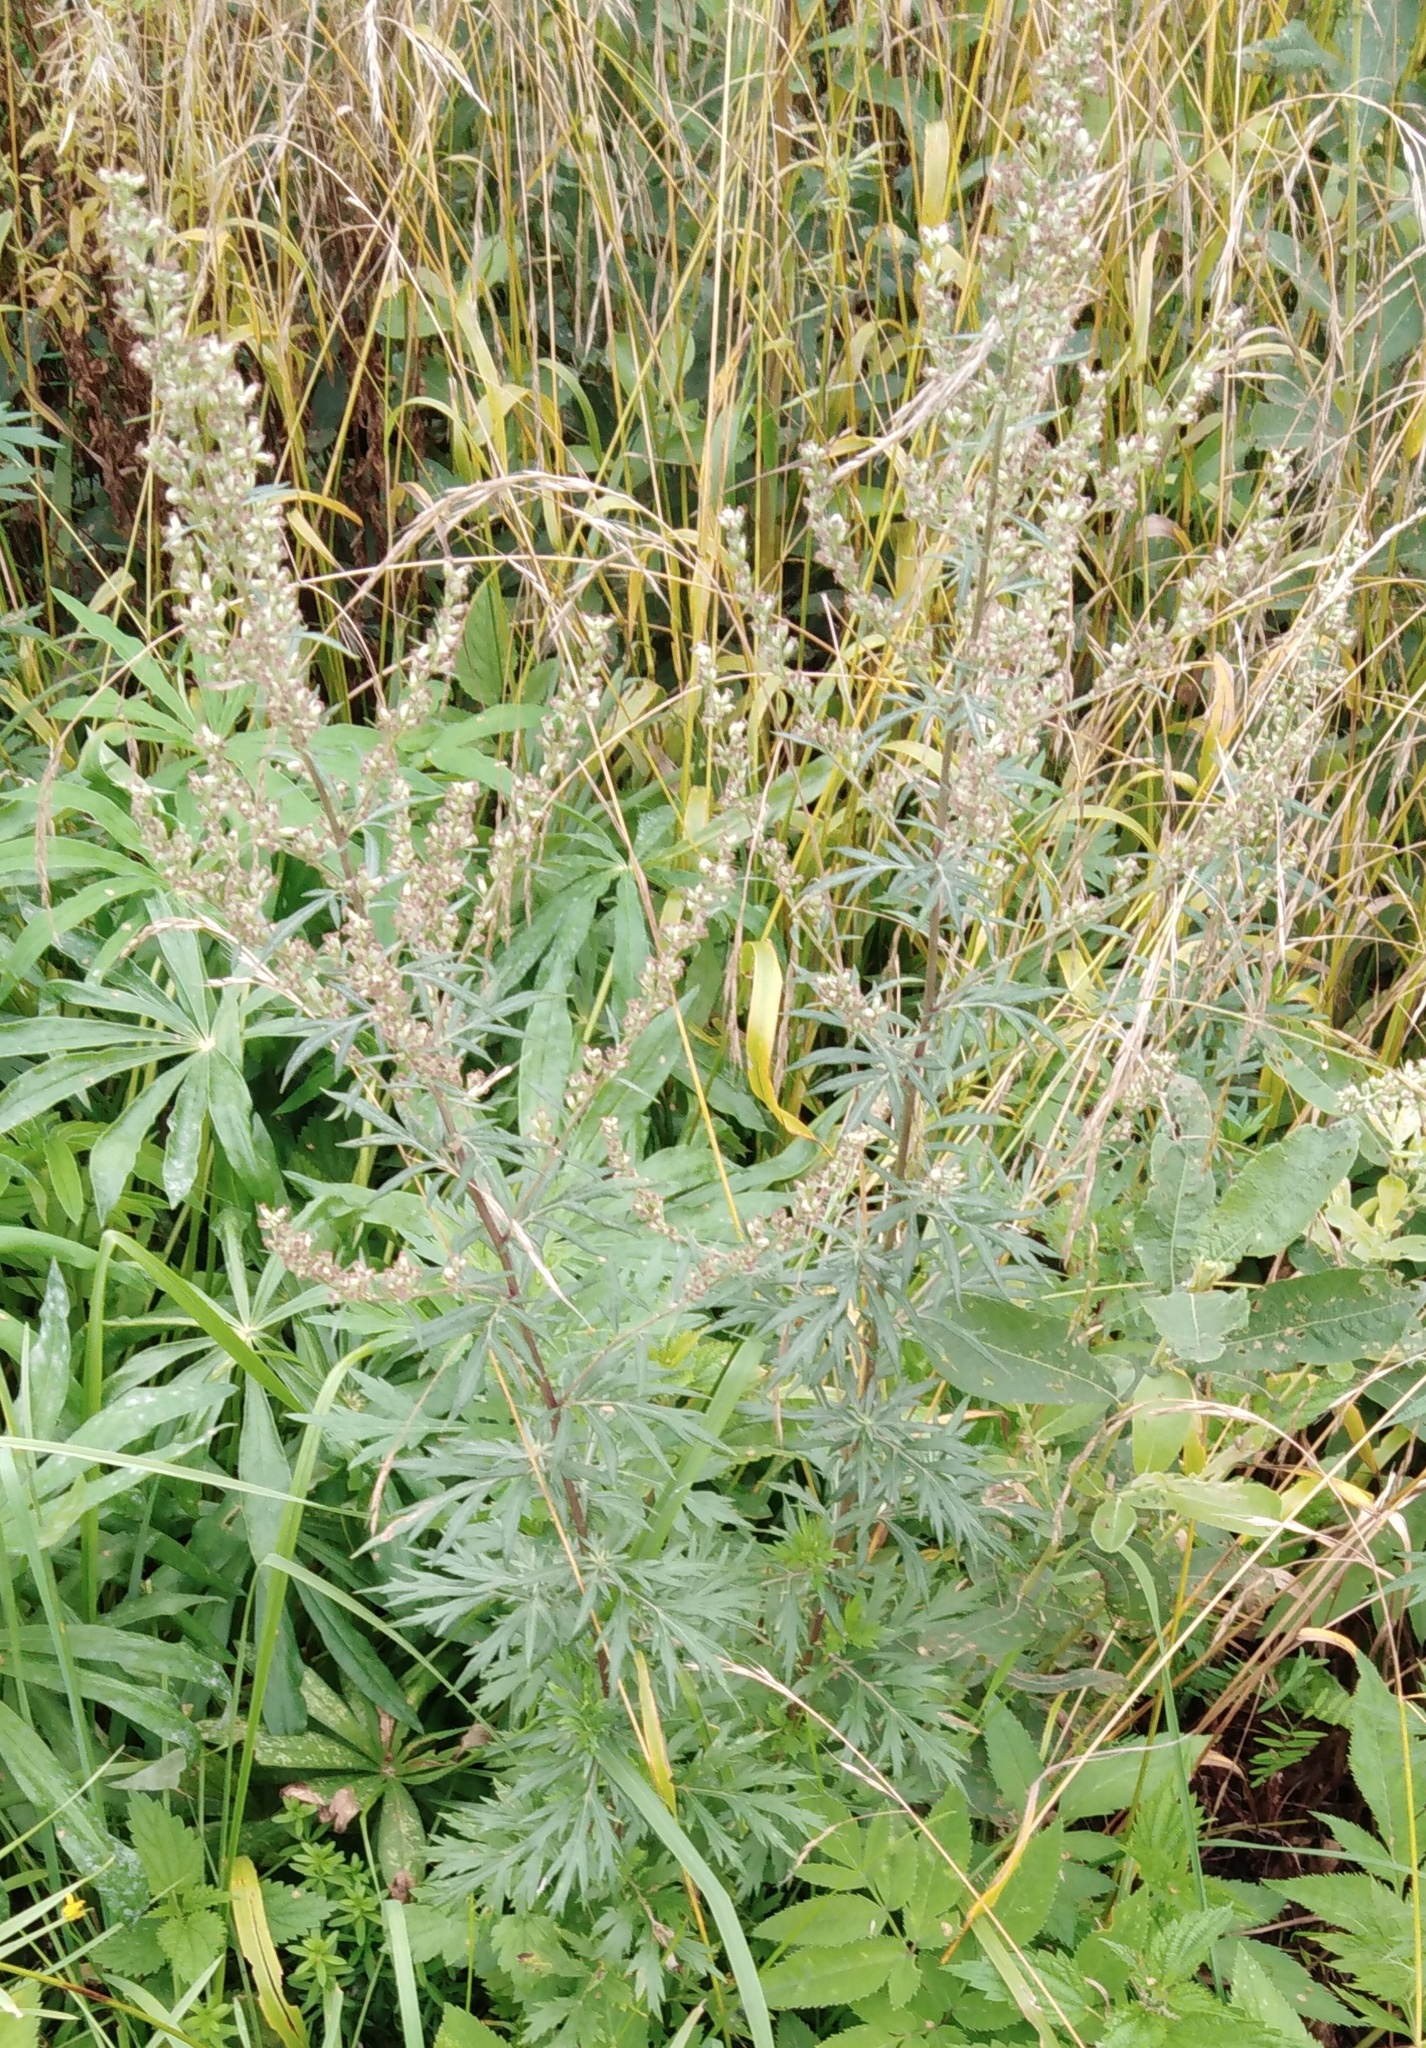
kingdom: Plantae
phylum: Tracheophyta
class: Magnoliopsida
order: Asterales
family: Asteraceae
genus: Artemisia
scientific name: Artemisia vulgaris
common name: Mugwort
